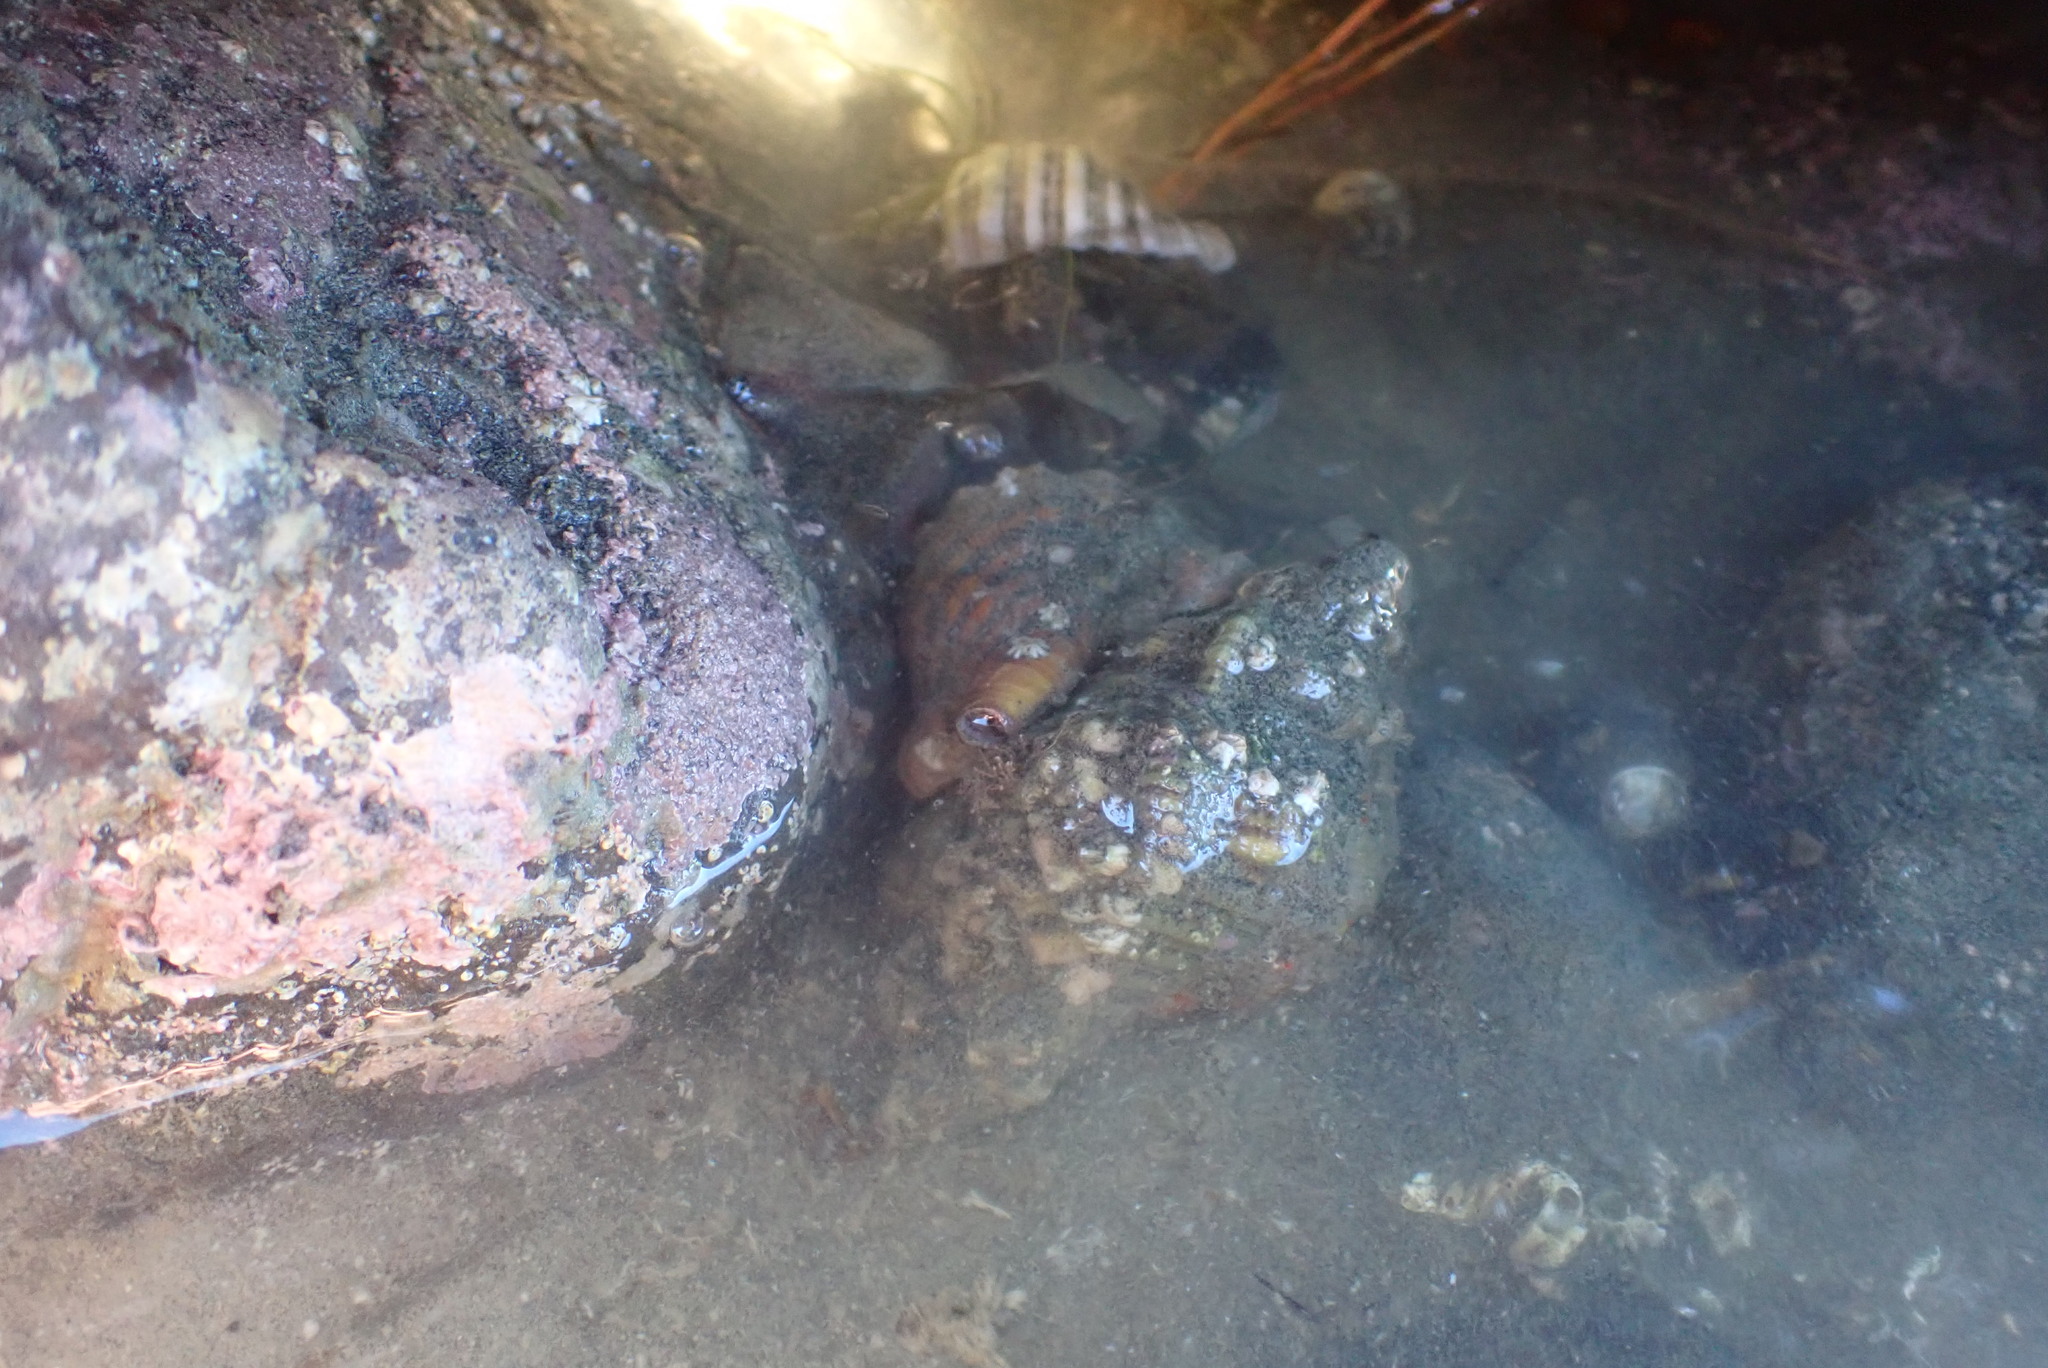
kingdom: Animalia
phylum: Mollusca
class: Gastropoda
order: Littorinimorpha
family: Cymatiidae
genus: Cabestana
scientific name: Cabestana spengleri
